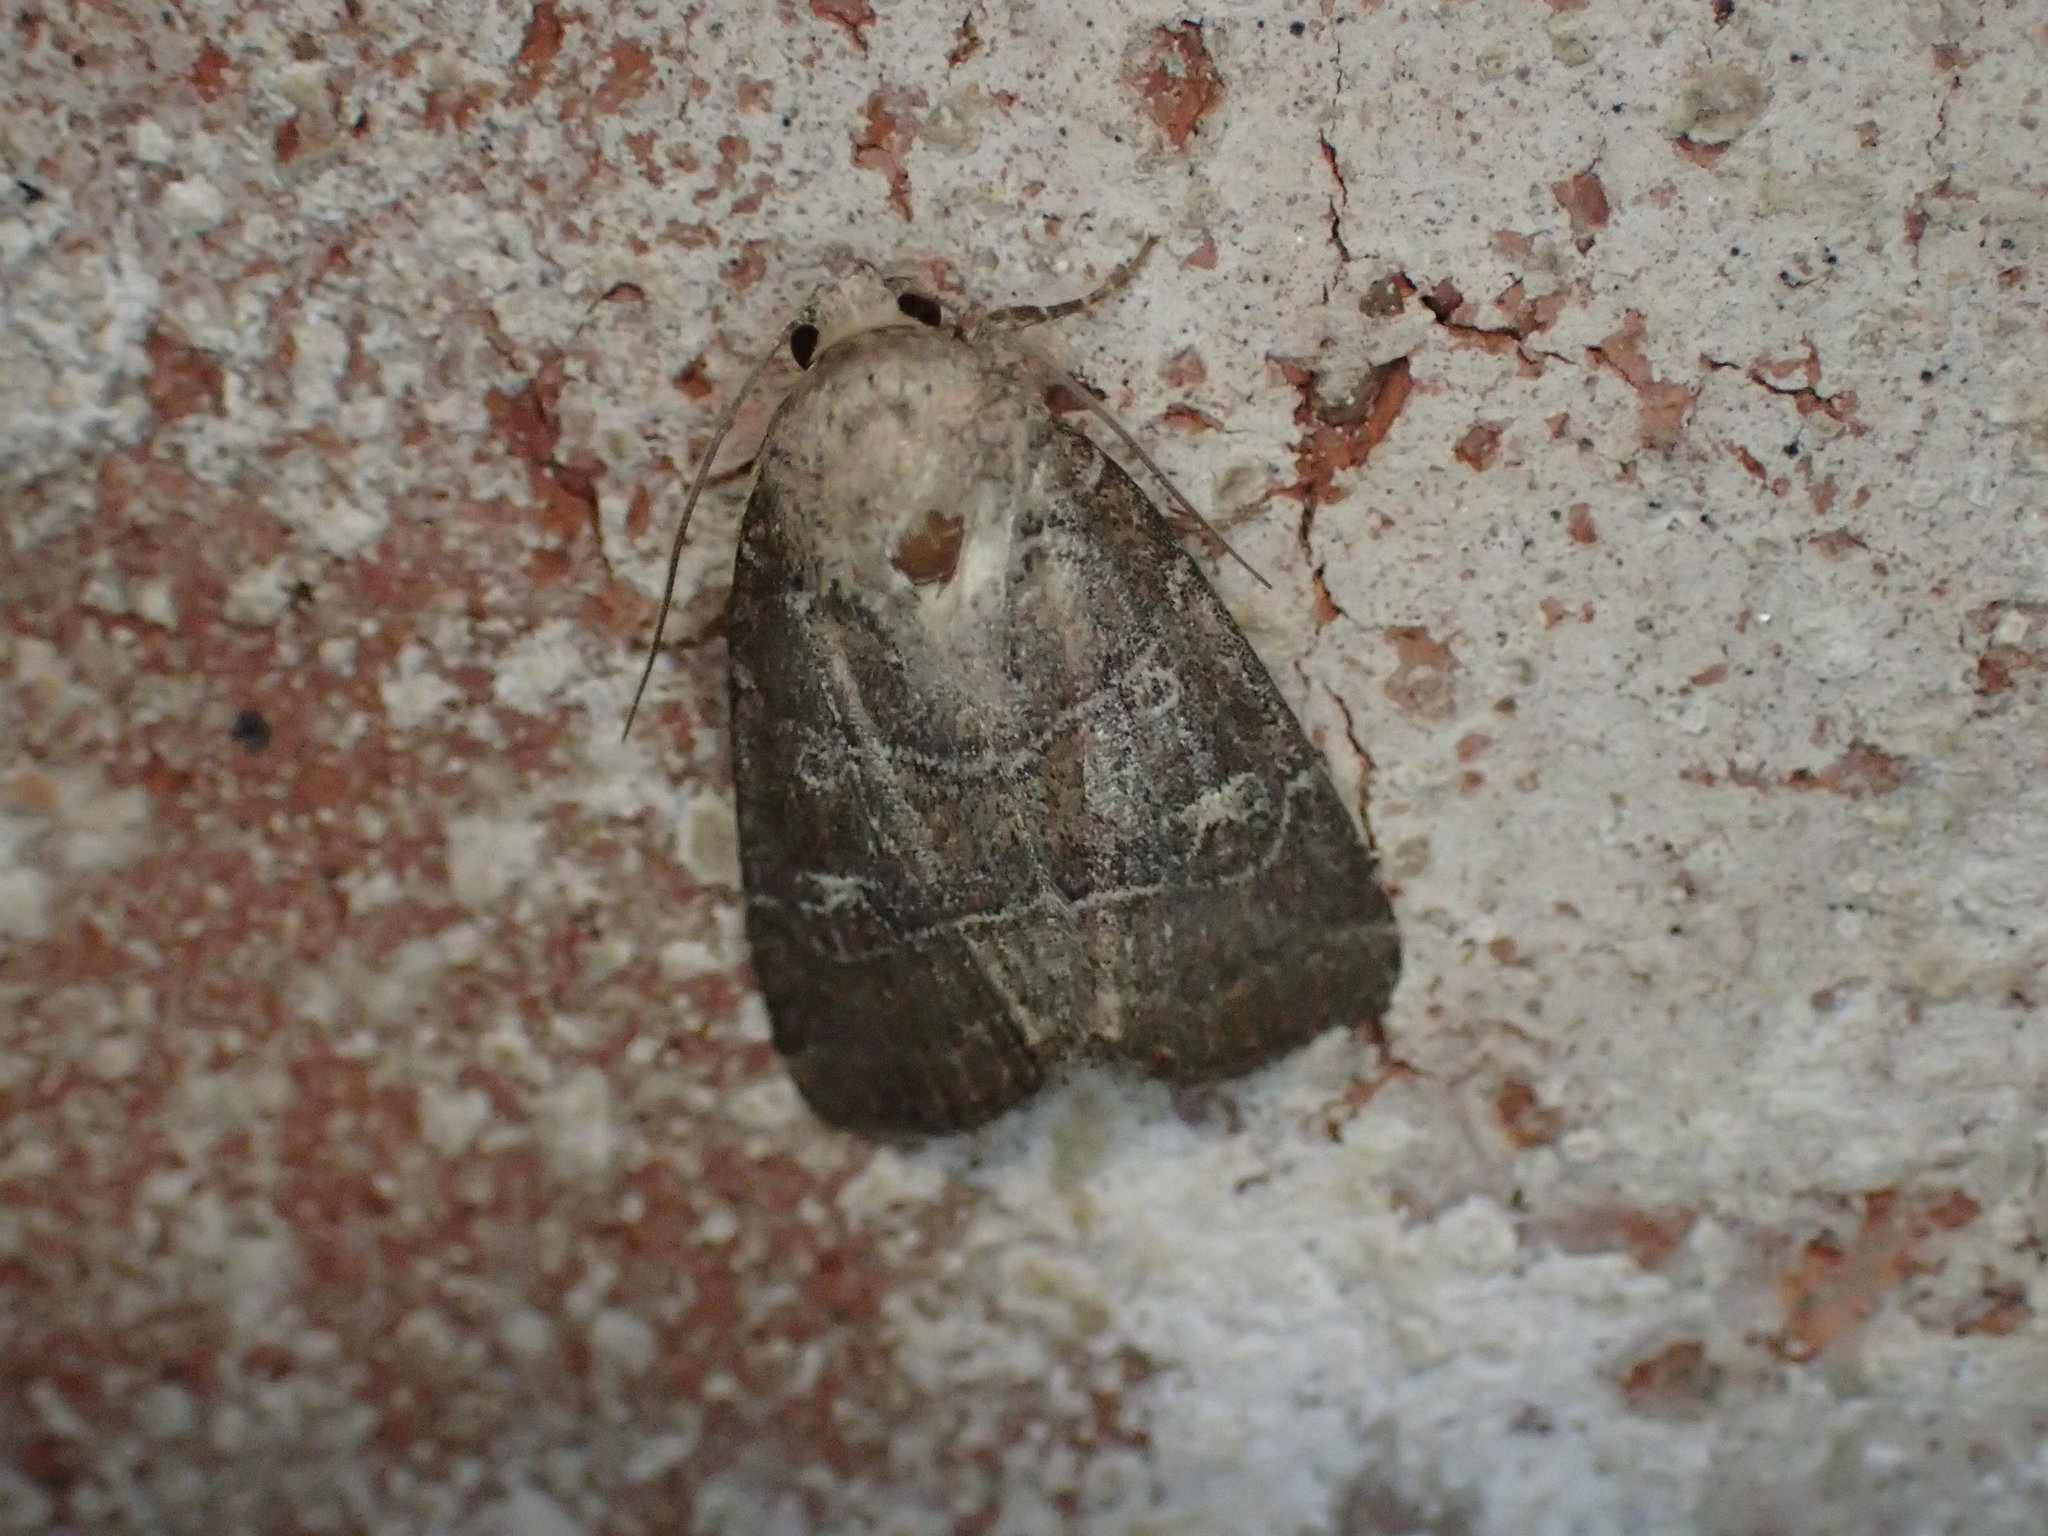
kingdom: Animalia
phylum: Arthropoda
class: Insecta
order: Lepidoptera
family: Noctuidae
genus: Elaphria
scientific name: Elaphria grata
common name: Grateful midget moth
